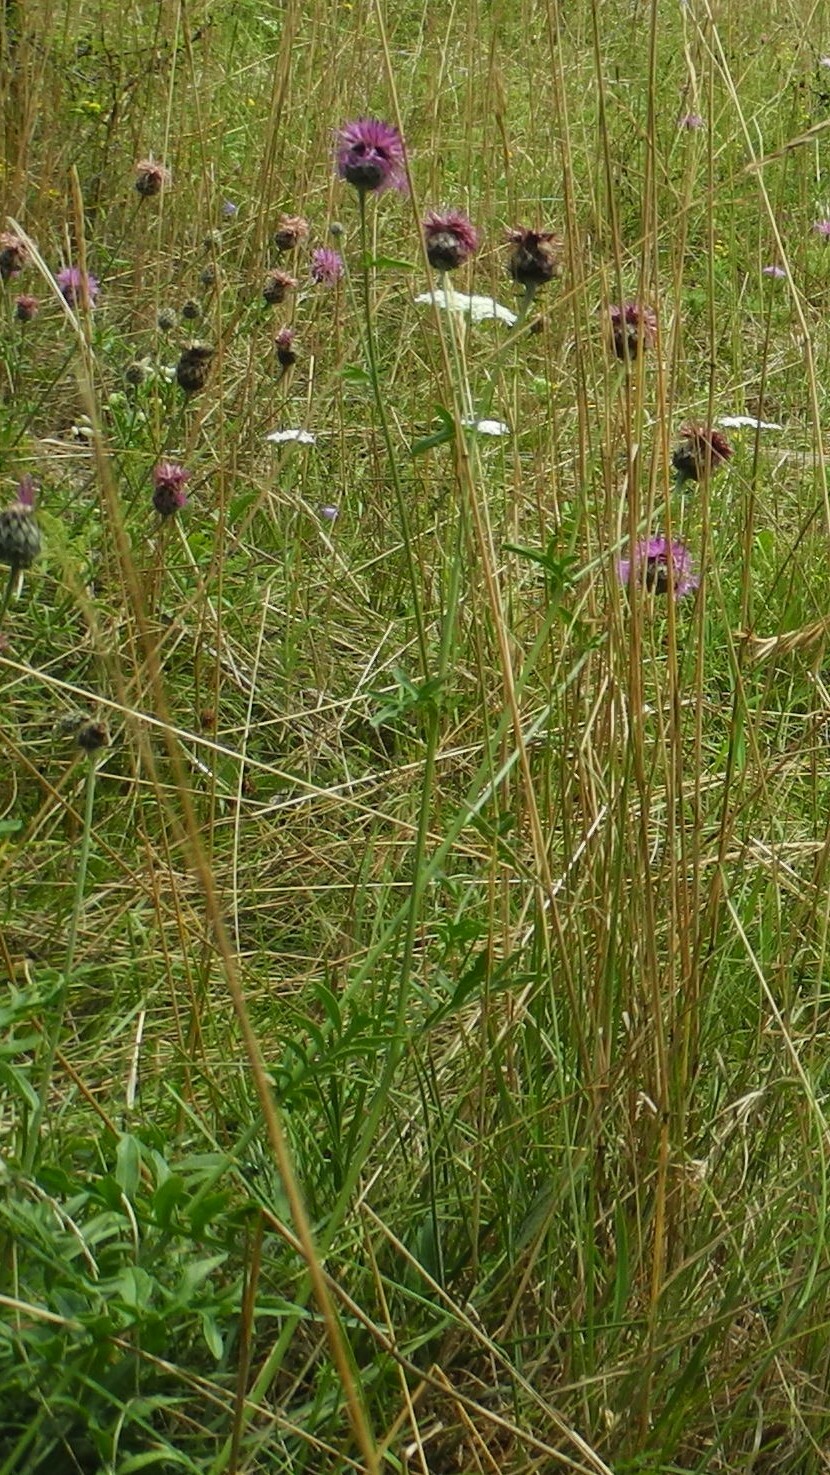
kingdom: Plantae
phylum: Tracheophyta
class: Magnoliopsida
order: Asterales
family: Asteraceae
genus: Centaurea
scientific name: Centaurea scabiosa
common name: Greater knapweed
